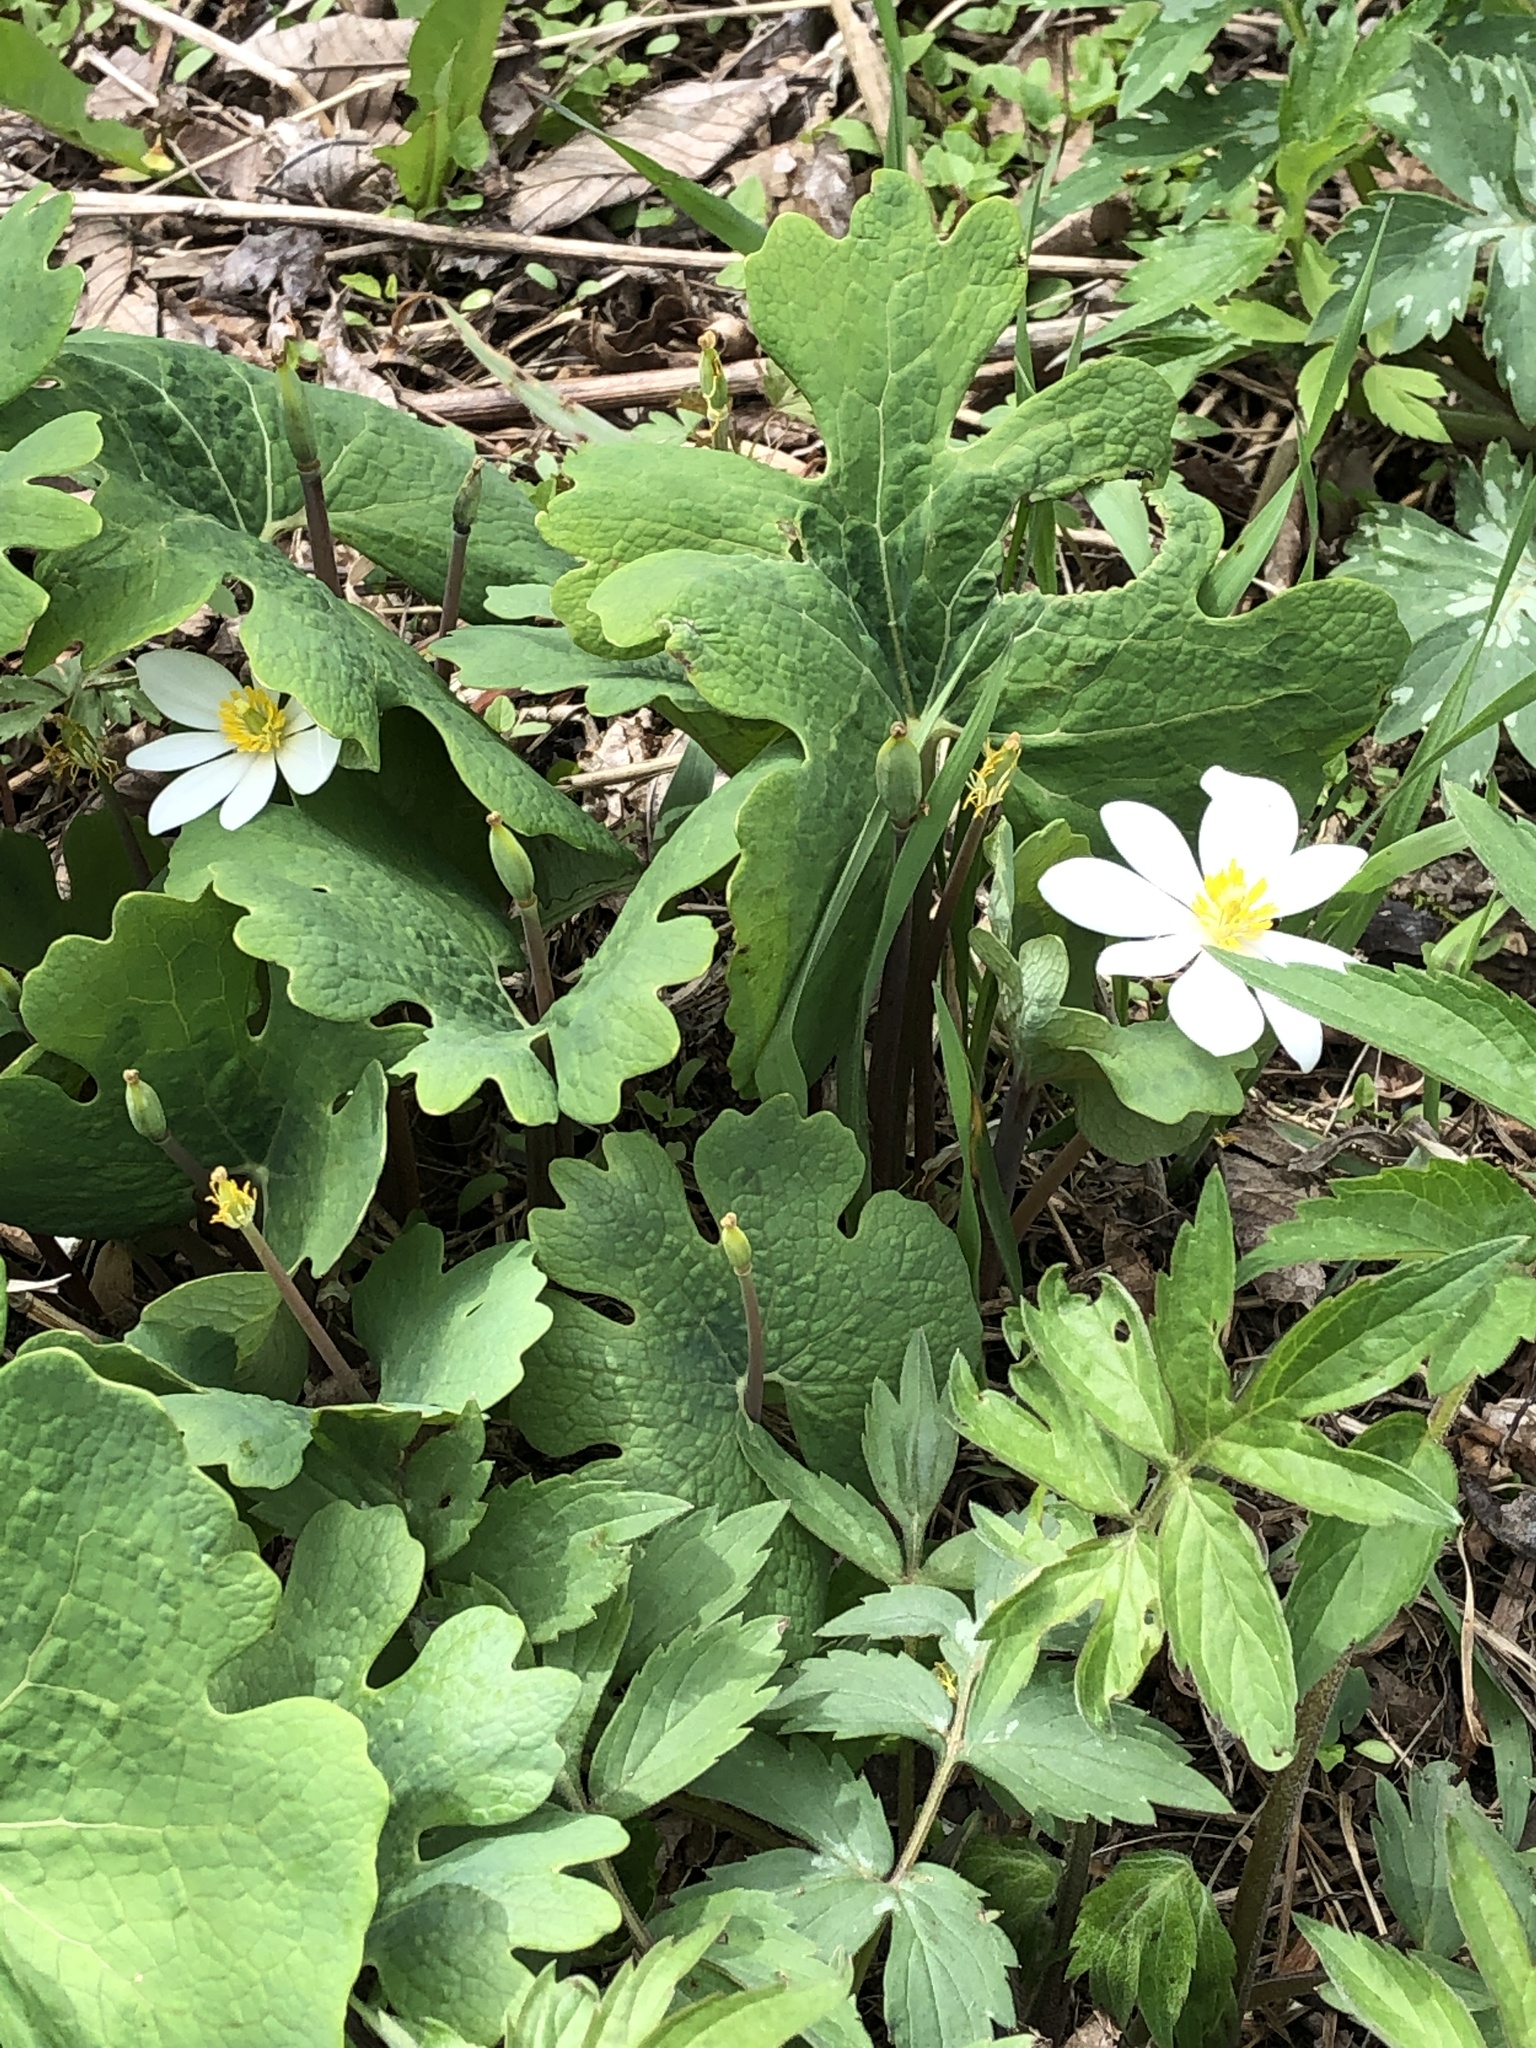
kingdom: Plantae
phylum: Tracheophyta
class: Magnoliopsida
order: Ranunculales
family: Papaveraceae
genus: Sanguinaria
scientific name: Sanguinaria canadensis
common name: Bloodroot
